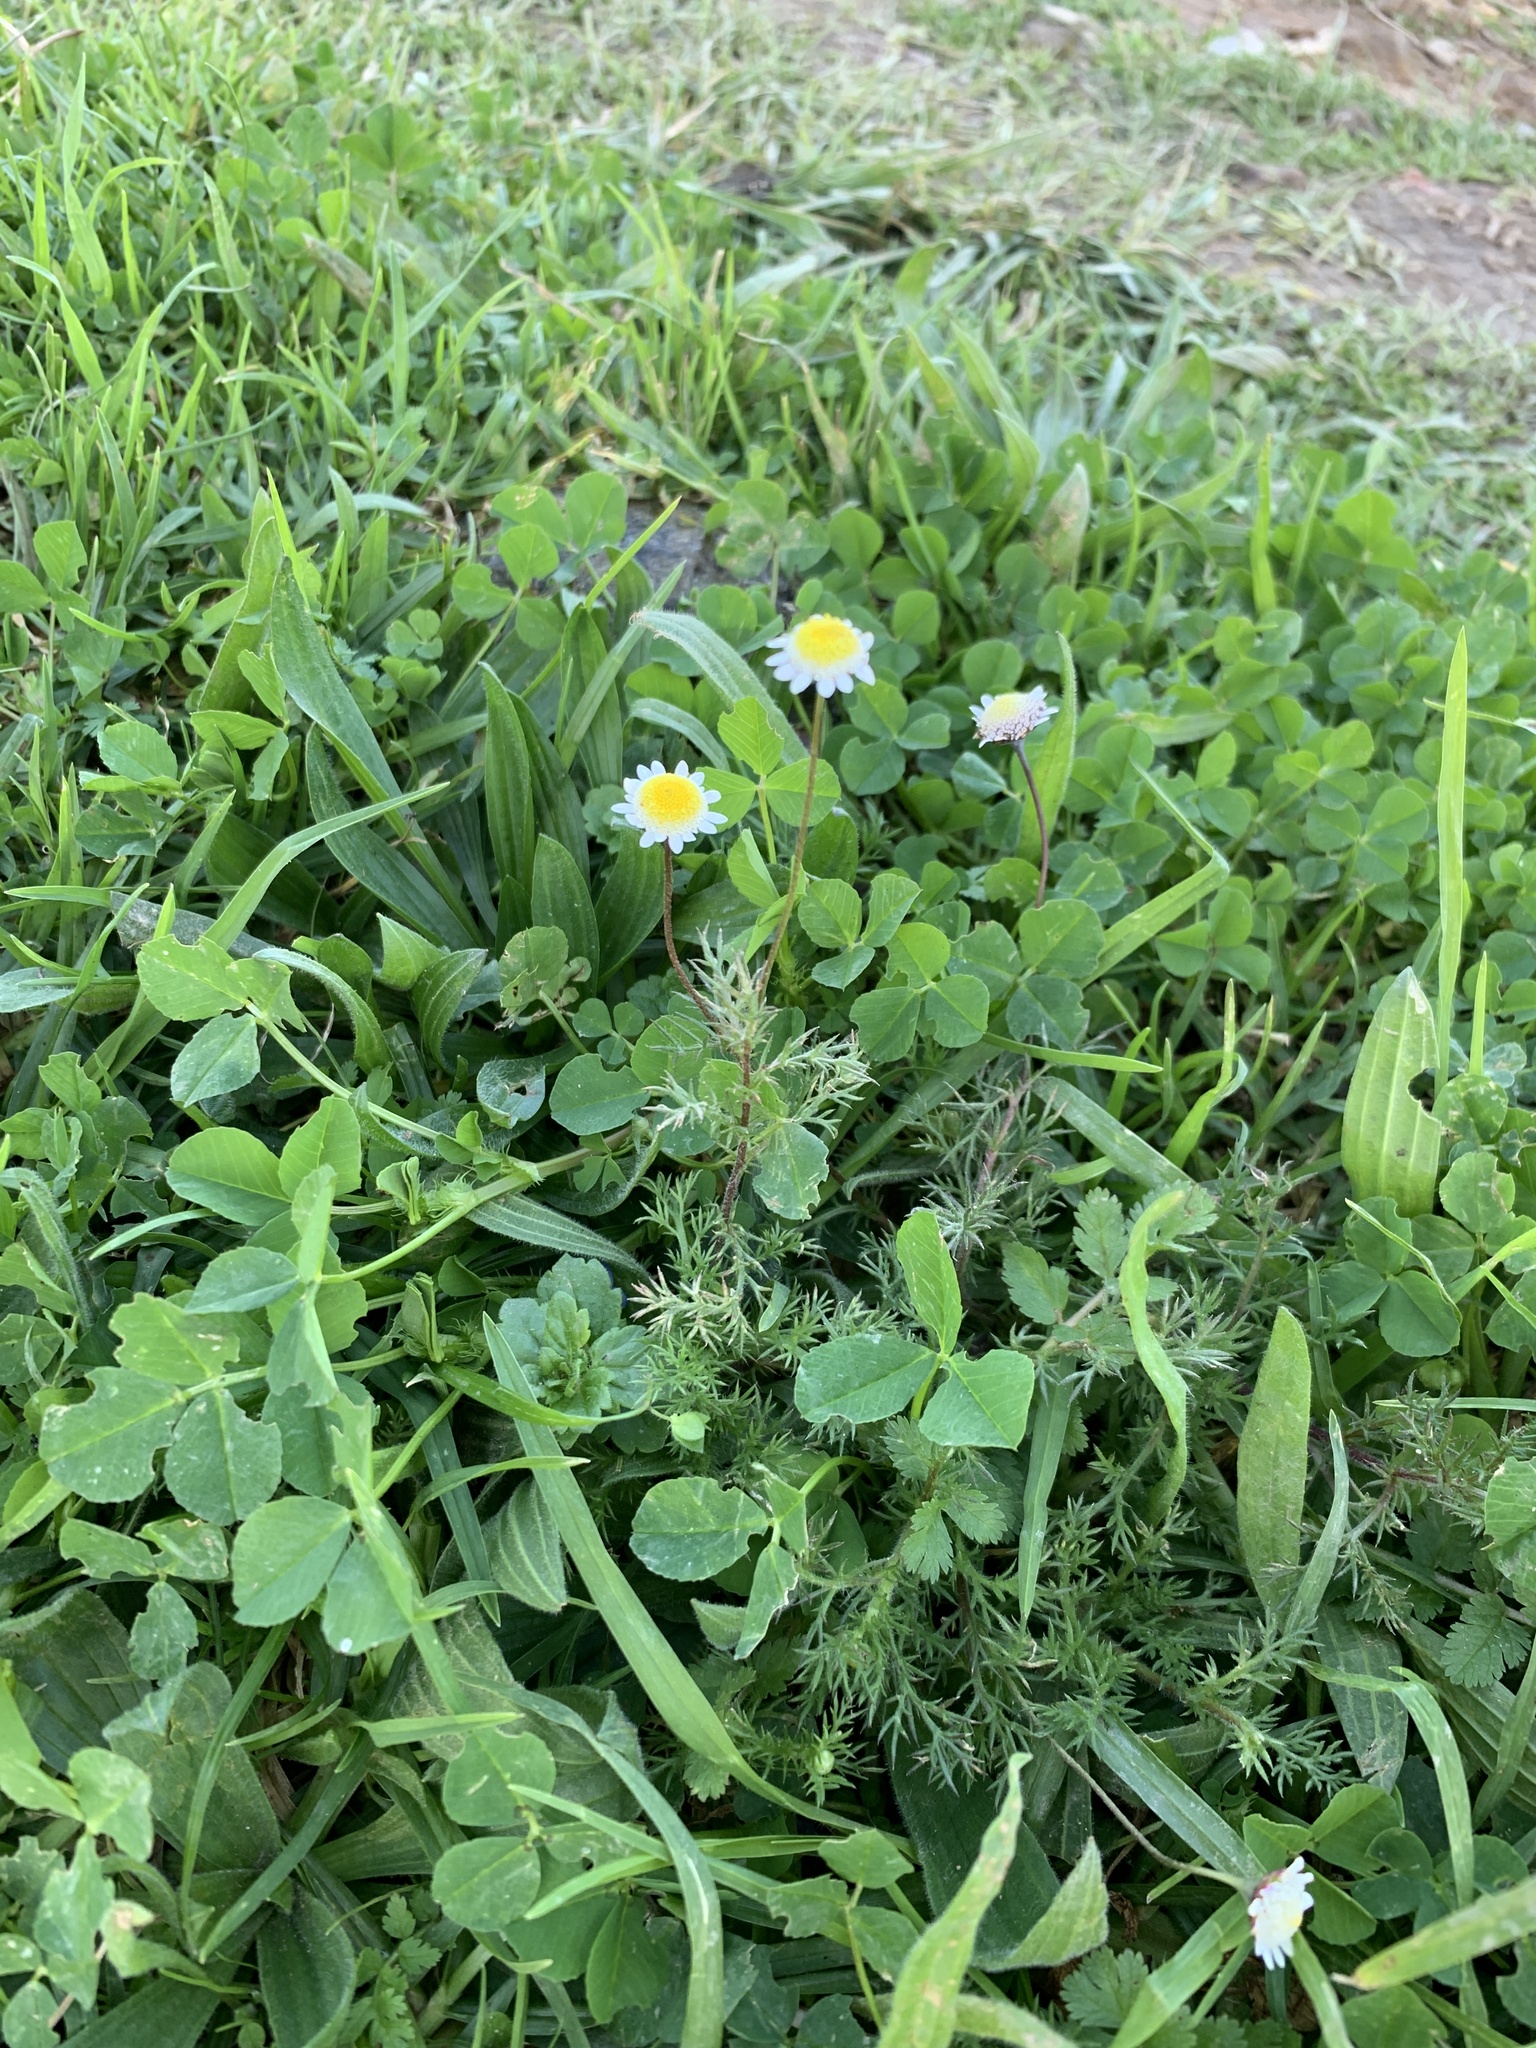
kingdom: Plantae
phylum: Tracheophyta
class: Magnoliopsida
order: Asterales
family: Asteraceae
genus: Cotula
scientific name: Cotula turbinata
